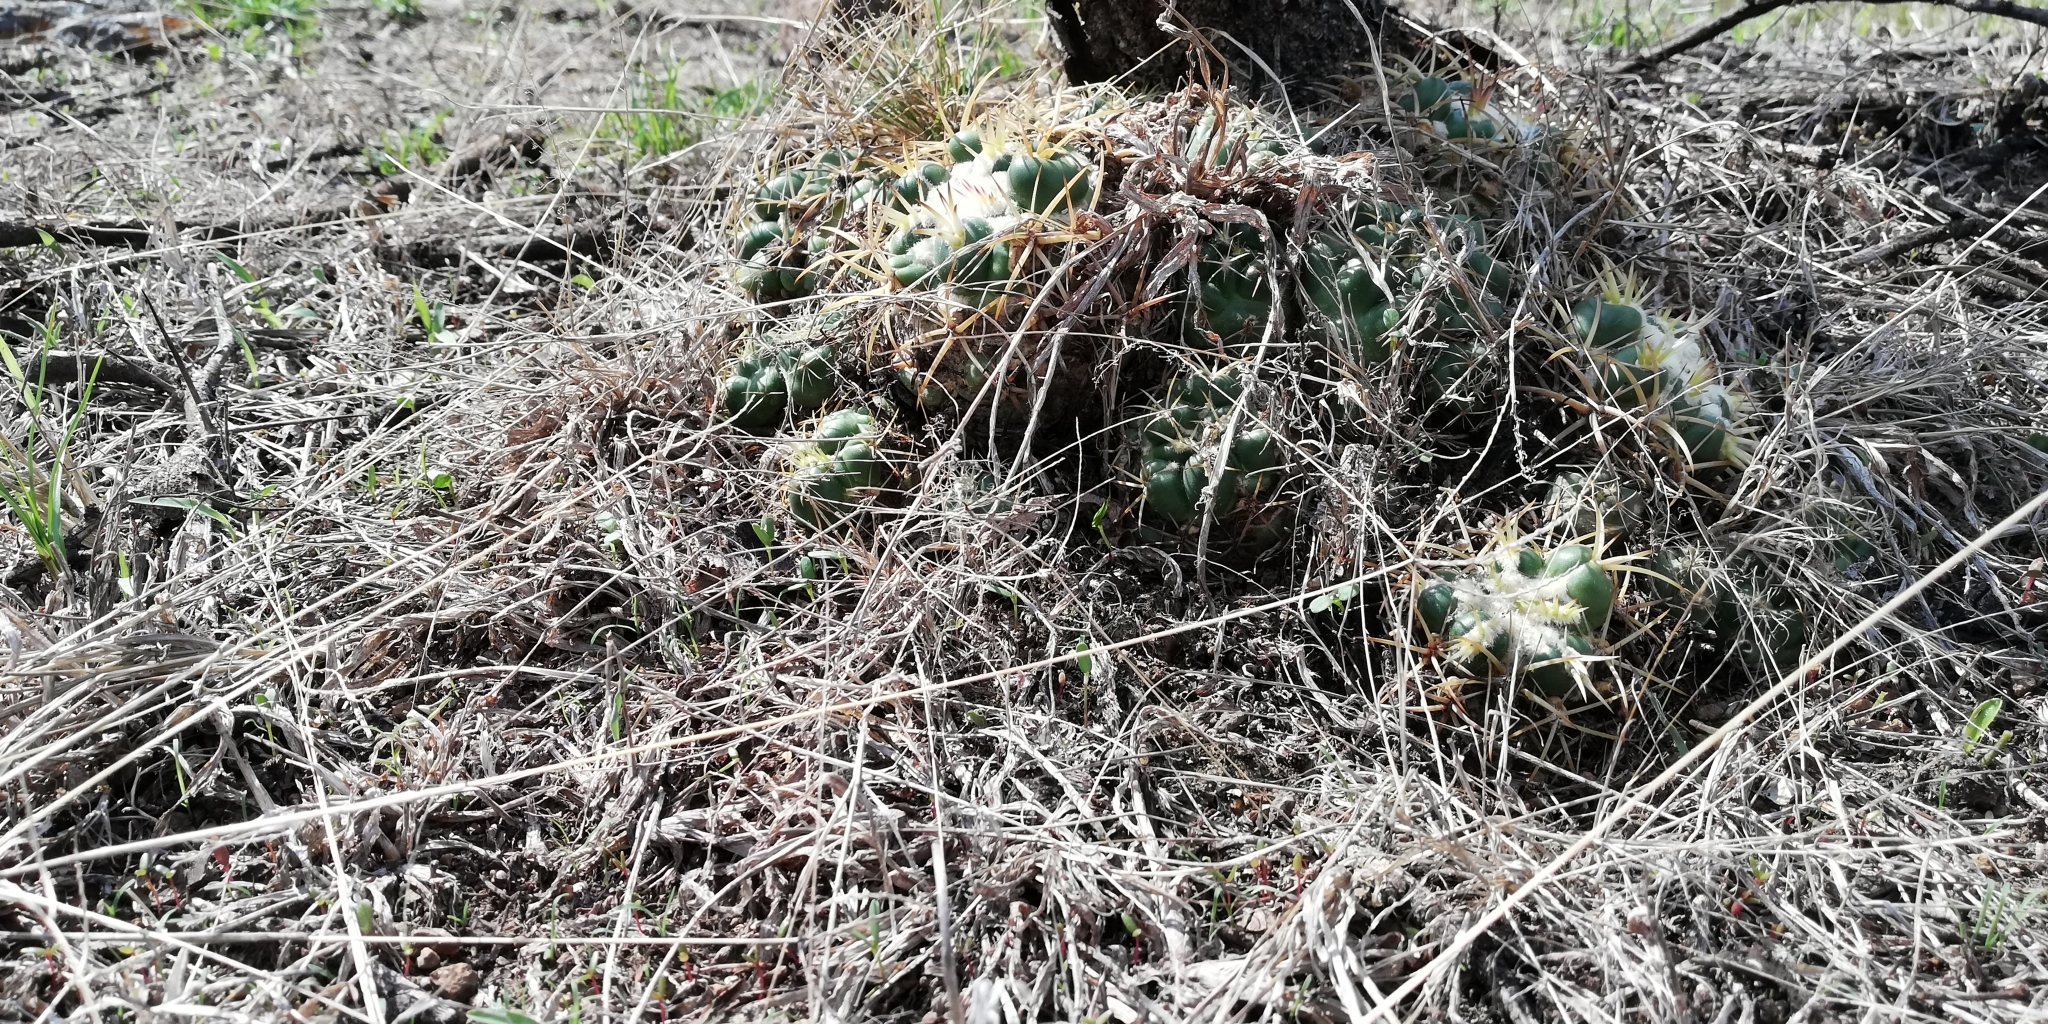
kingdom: Plantae
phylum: Tracheophyta
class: Magnoliopsida
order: Caryophyllales
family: Cactaceae
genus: Coryphantha
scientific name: Coryphantha elephantidens
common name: Elephant's tooth
